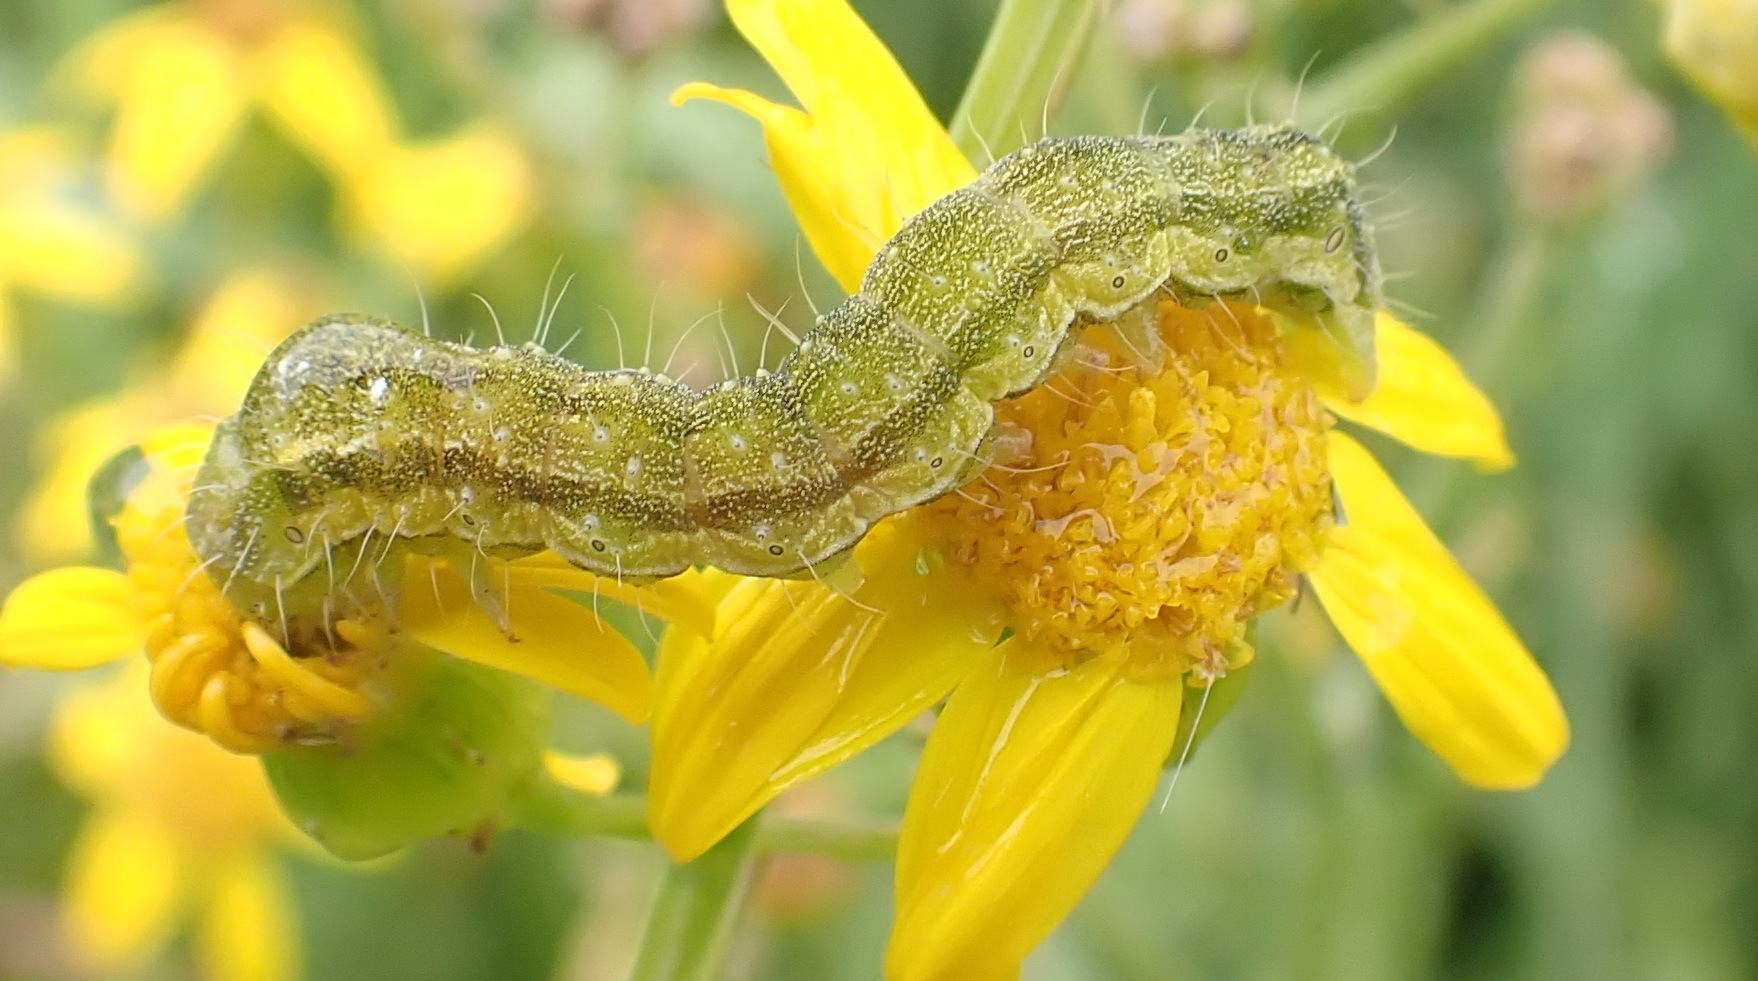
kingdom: Animalia
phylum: Arthropoda
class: Insecta
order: Lepidoptera
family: Noctuidae
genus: Helicoverpa
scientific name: Helicoverpa armigera
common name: Cotton bollworm
